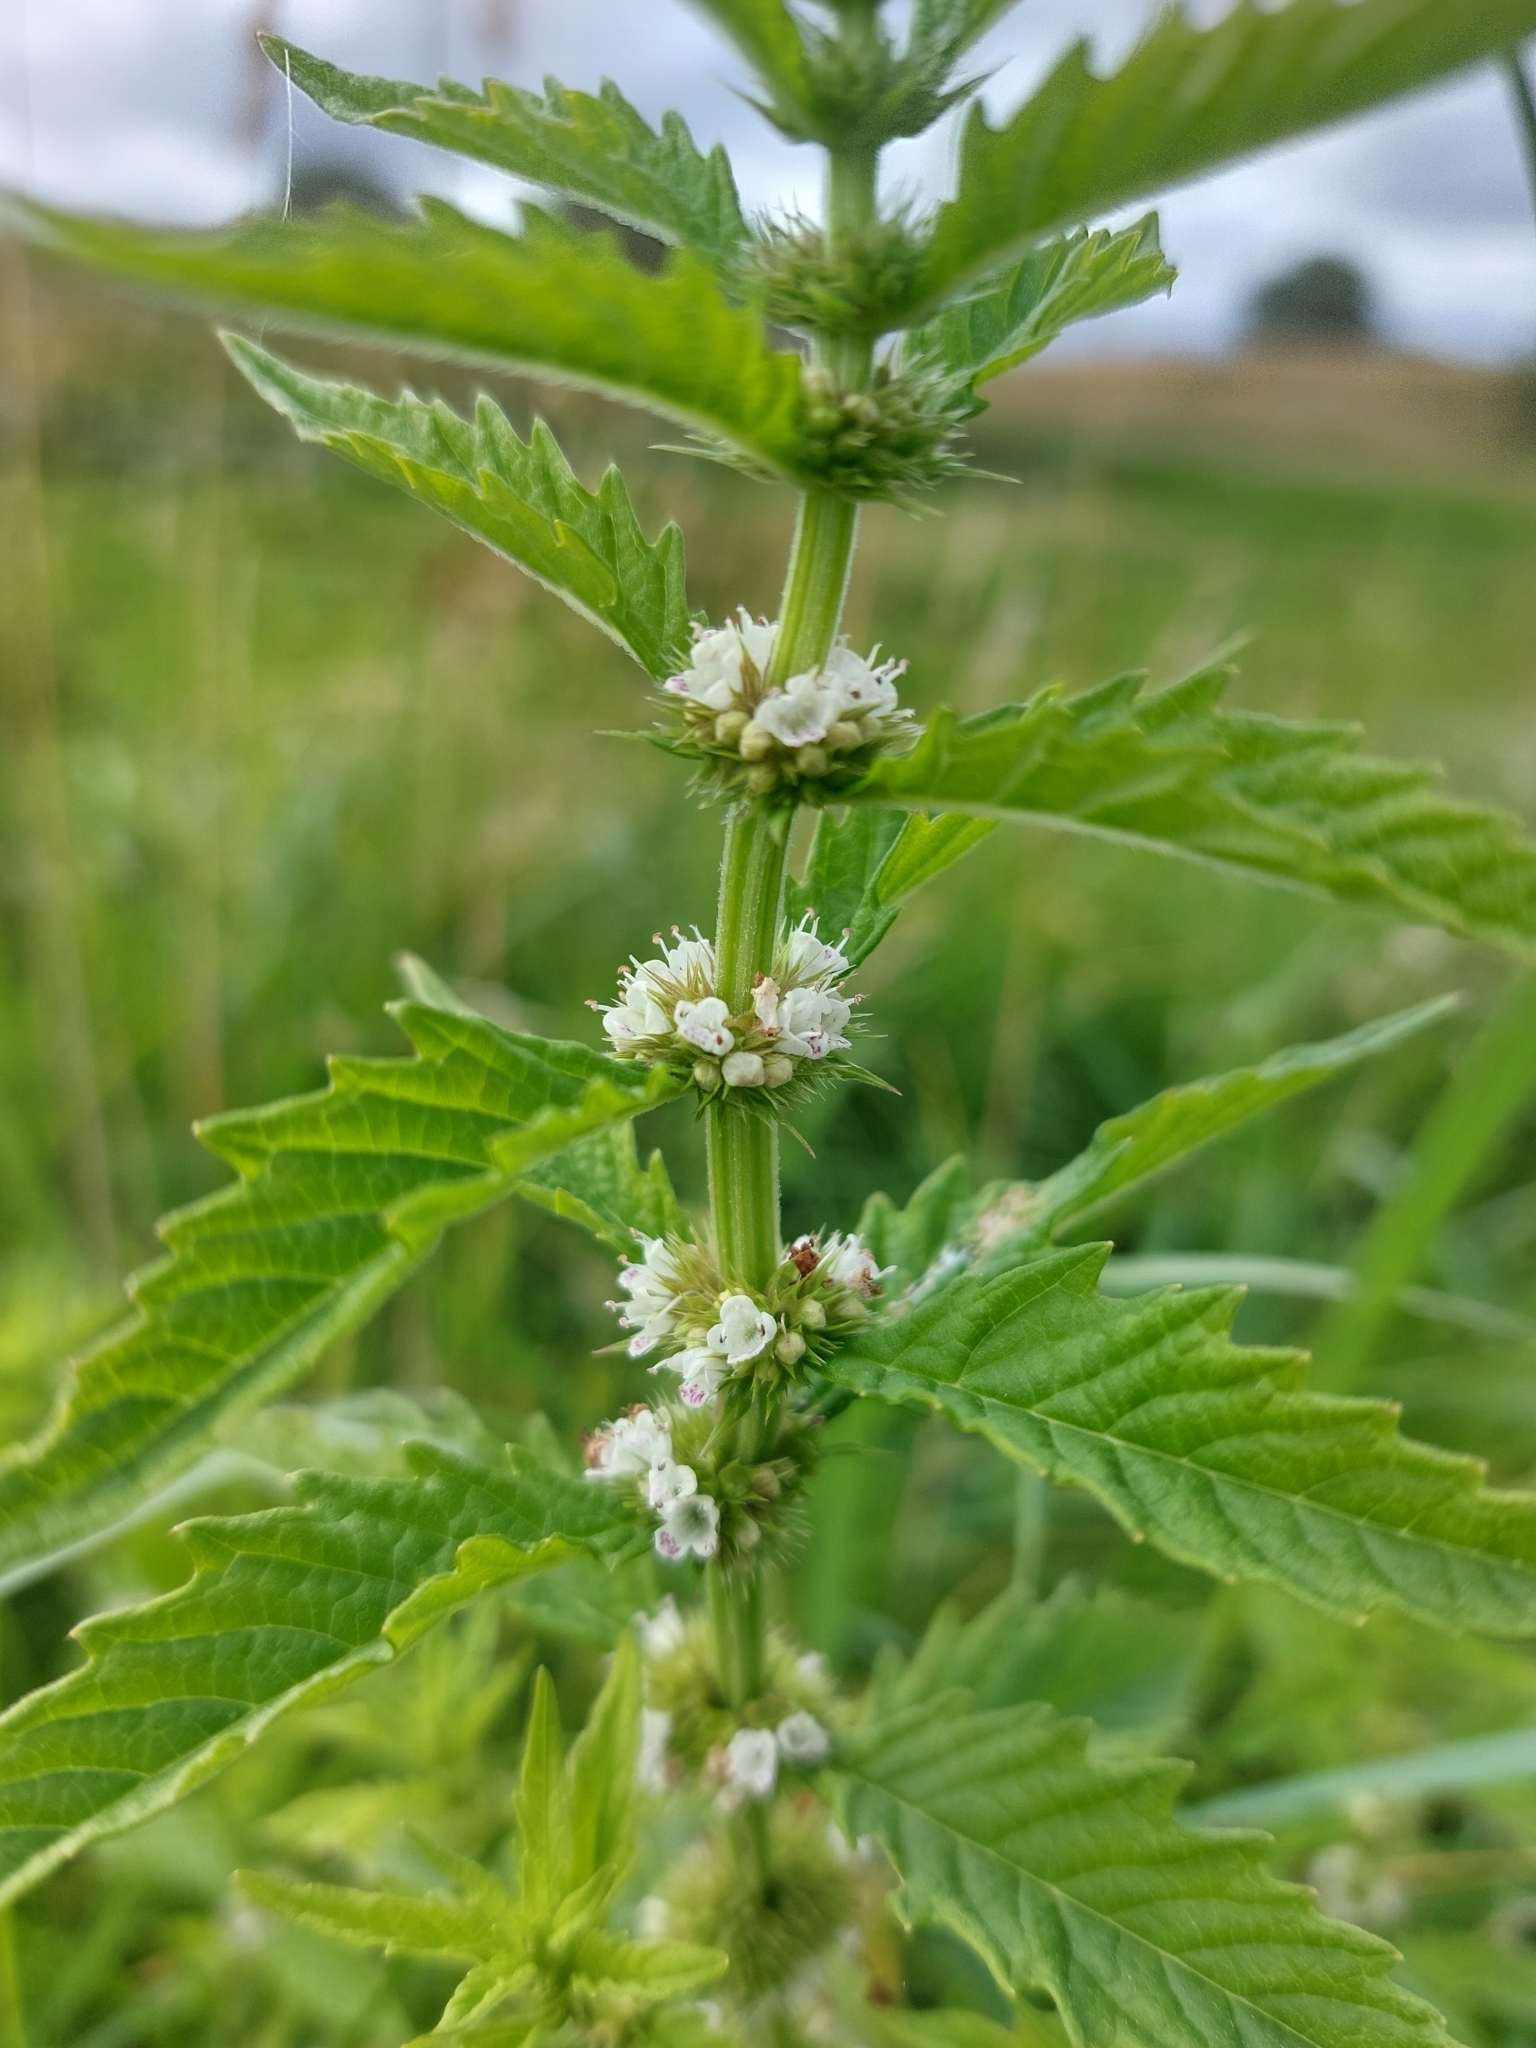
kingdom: Plantae
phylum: Tracheophyta
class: Magnoliopsida
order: Lamiales
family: Lamiaceae
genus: Lycopus
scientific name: Lycopus europaeus
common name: European bugleweed
